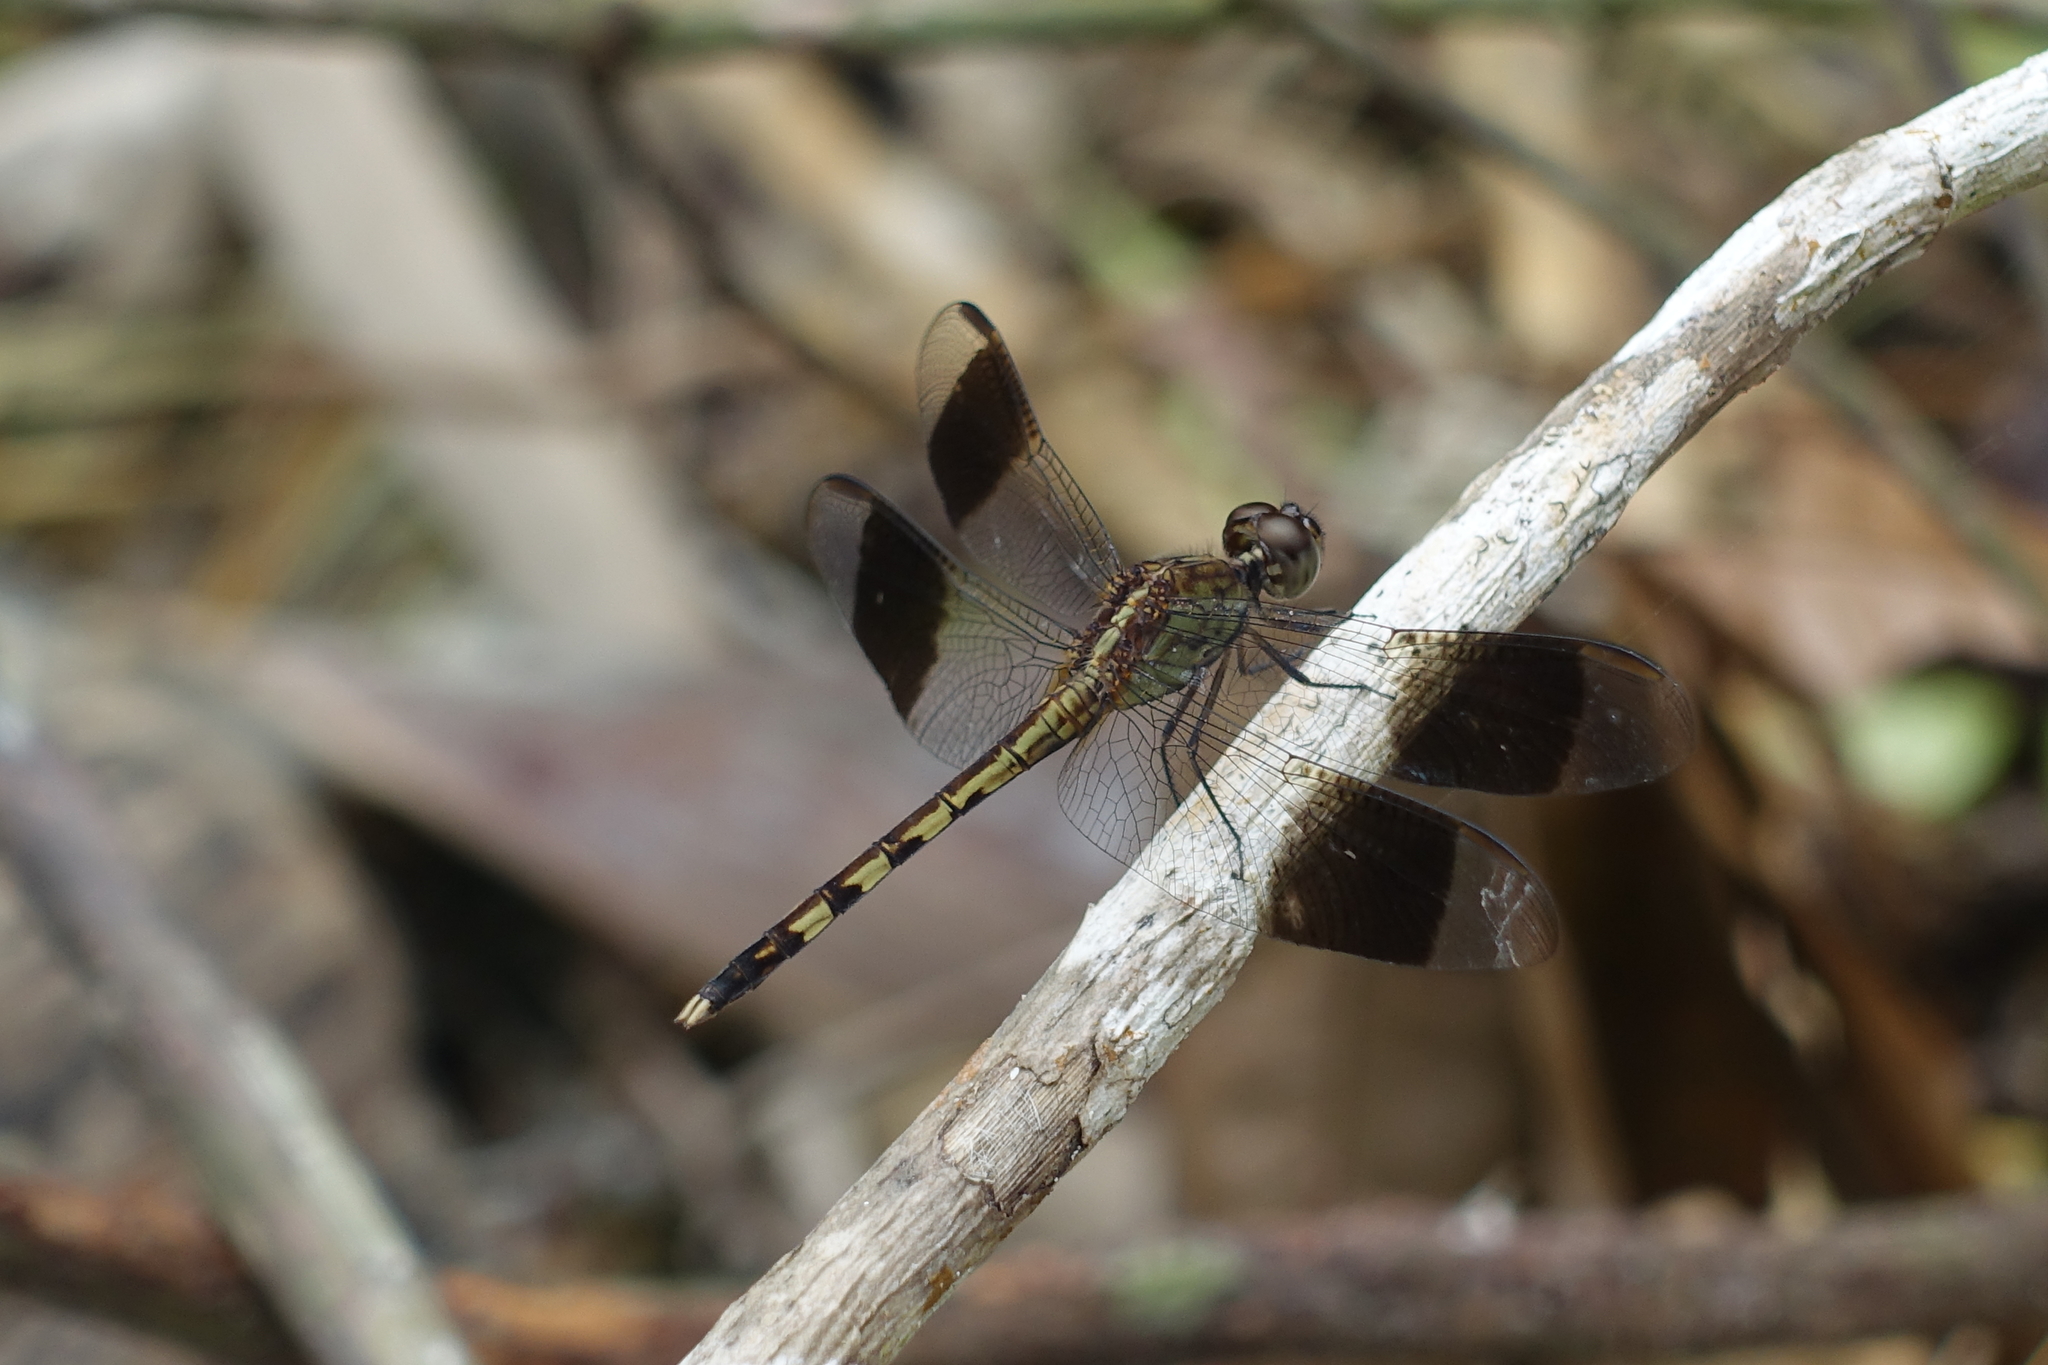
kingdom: Animalia
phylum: Arthropoda
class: Insecta
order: Odonata
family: Libellulidae
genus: Erythrodiplax
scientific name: Erythrodiplax umbrata
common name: Band-winged dragonlet
